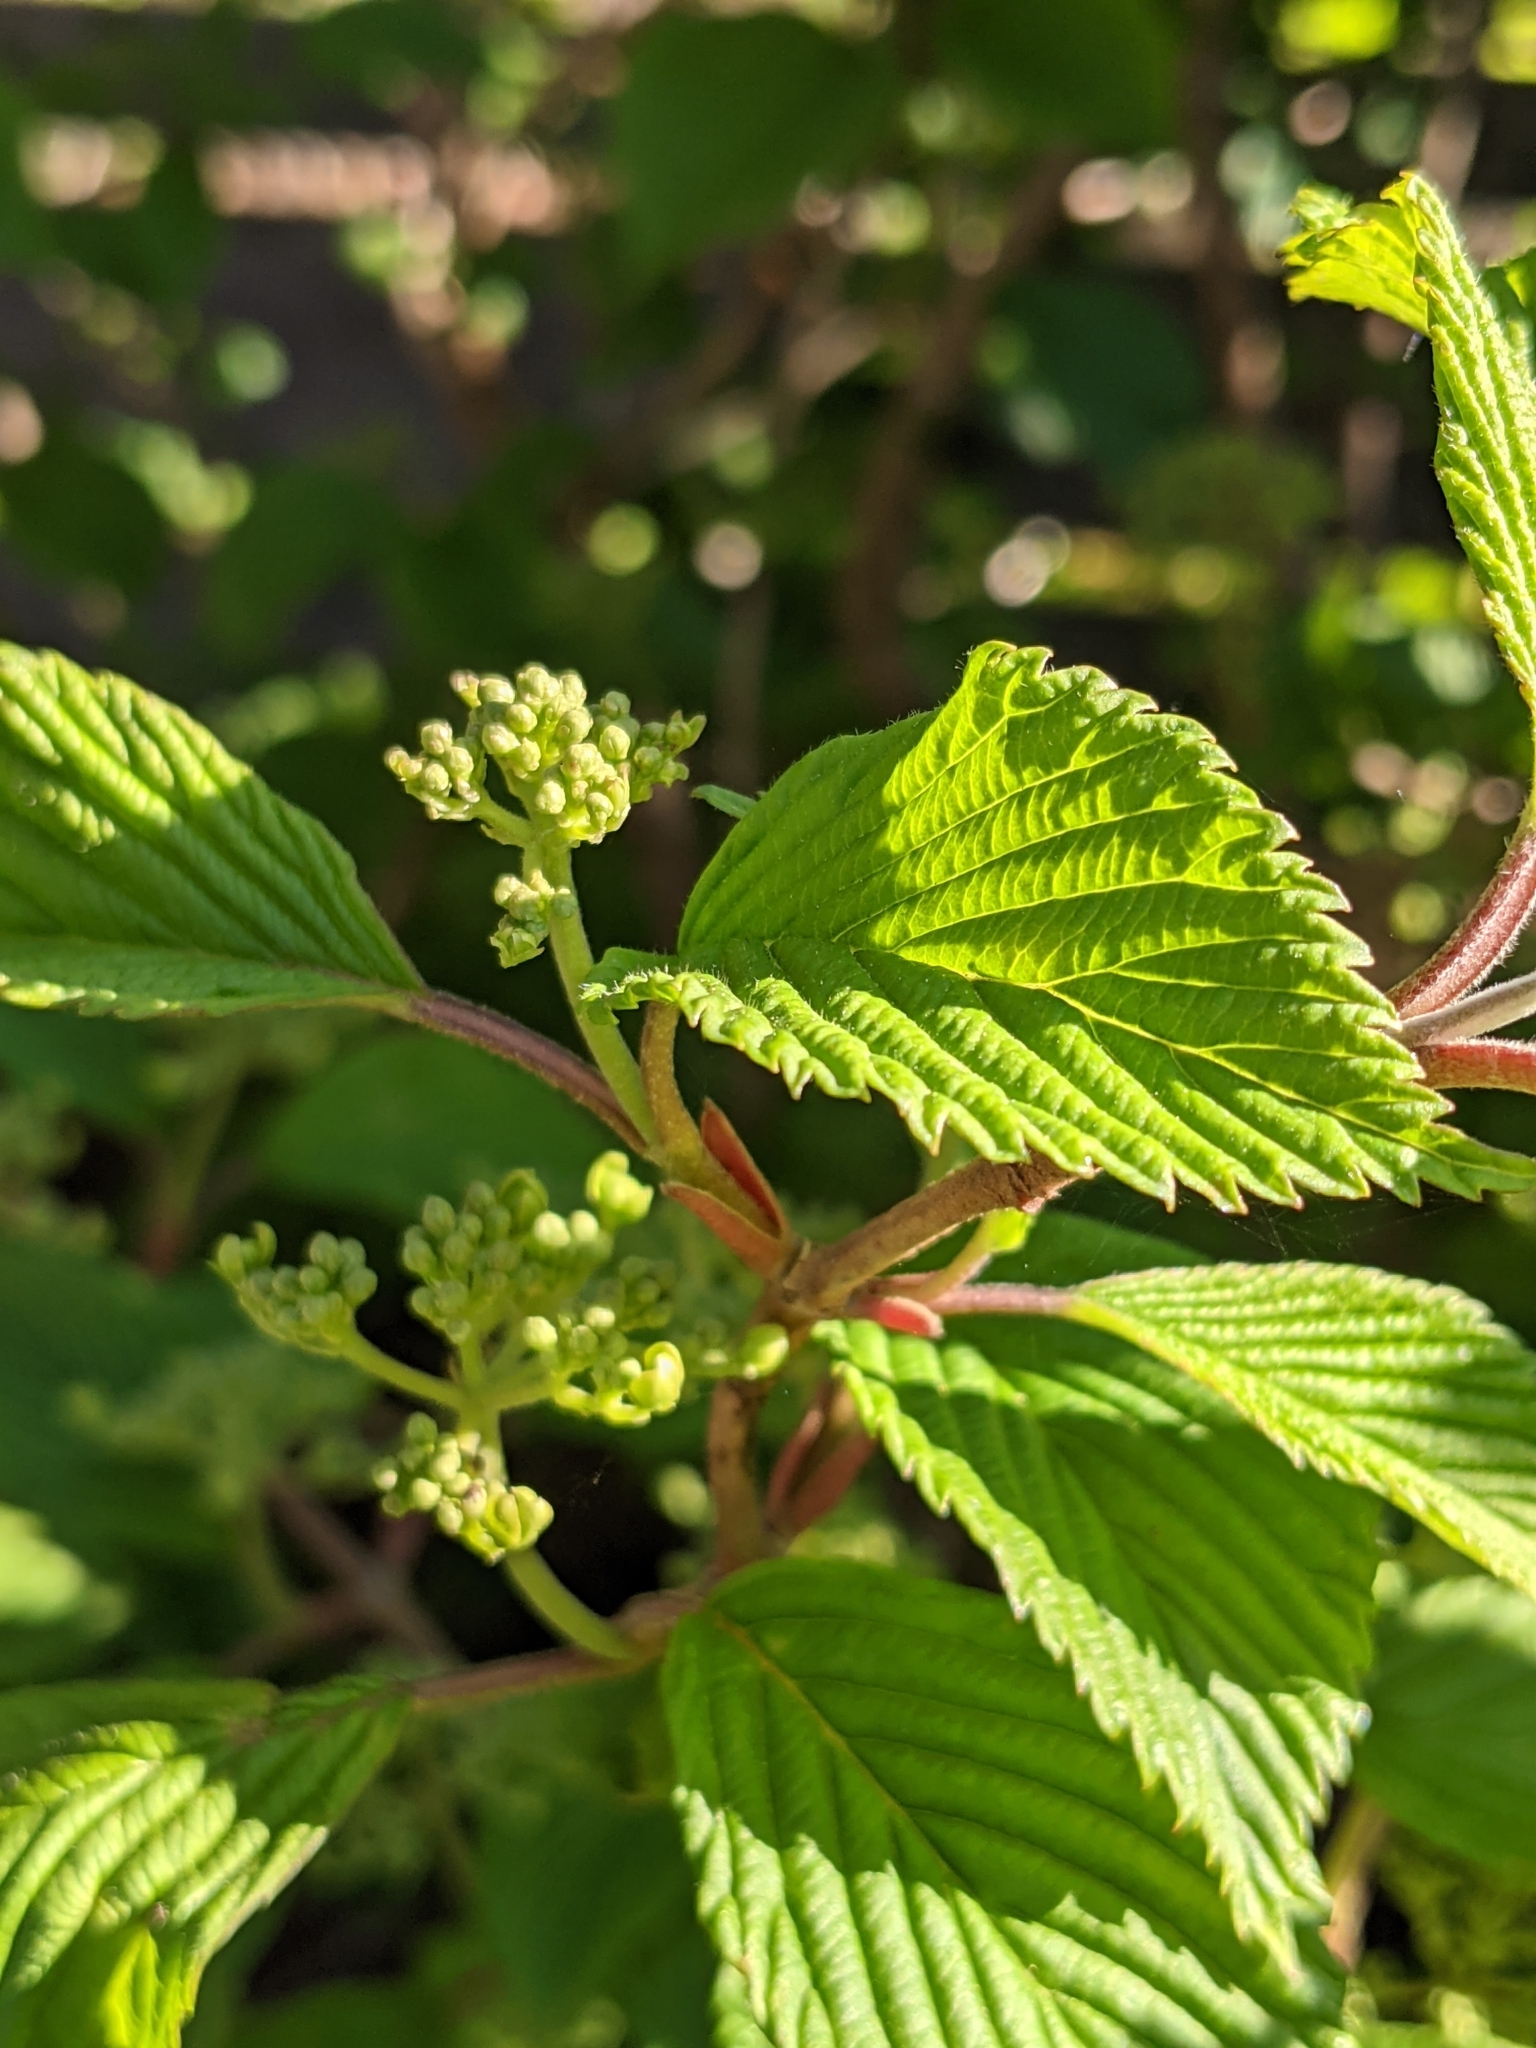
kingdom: Plantae
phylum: Tracheophyta
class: Magnoliopsida
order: Dipsacales
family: Viburnaceae
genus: Viburnum
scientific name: Viburnum plicatum
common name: Japanese snowball
